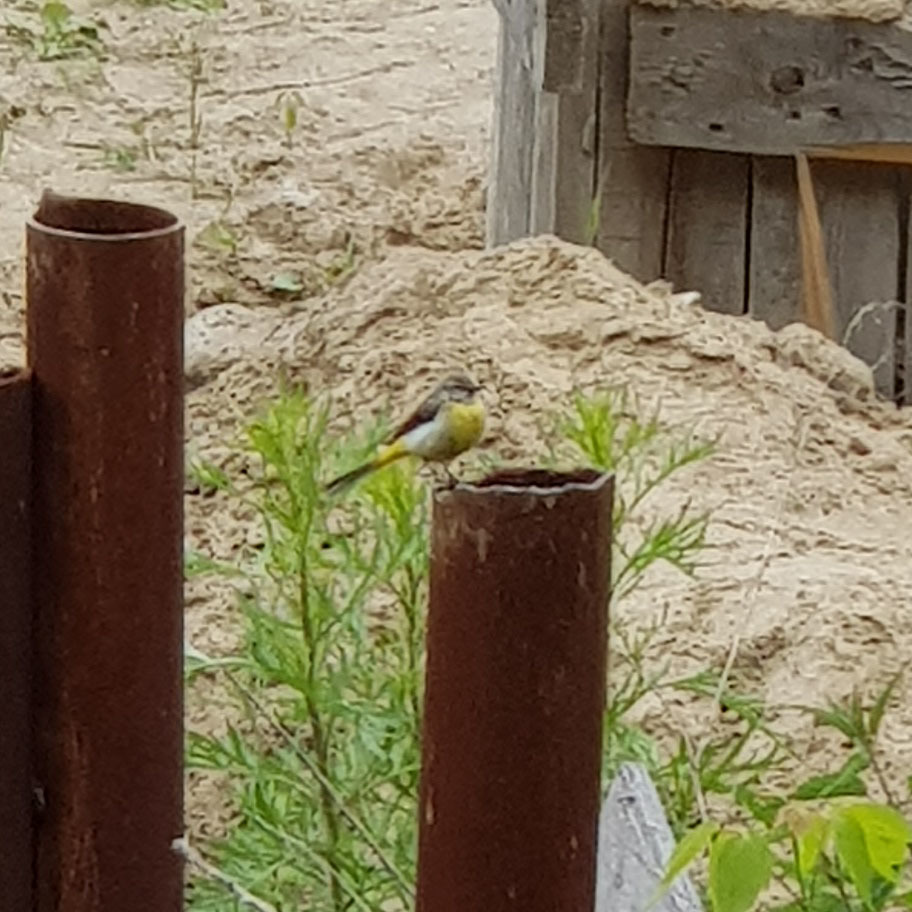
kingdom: Animalia
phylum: Chordata
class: Aves
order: Passeriformes
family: Motacillidae
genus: Motacilla
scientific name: Motacilla cinerea
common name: Grey wagtail
